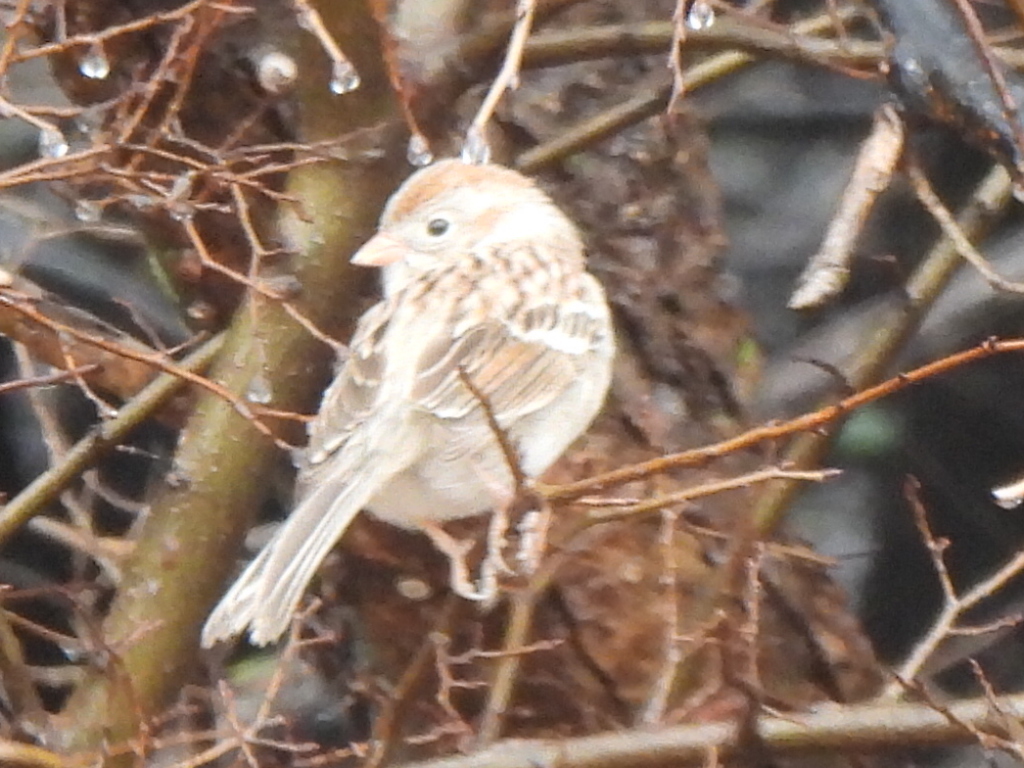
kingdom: Animalia
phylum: Chordata
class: Aves
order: Passeriformes
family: Passerellidae
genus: Spizella
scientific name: Spizella pusilla
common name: Field sparrow
